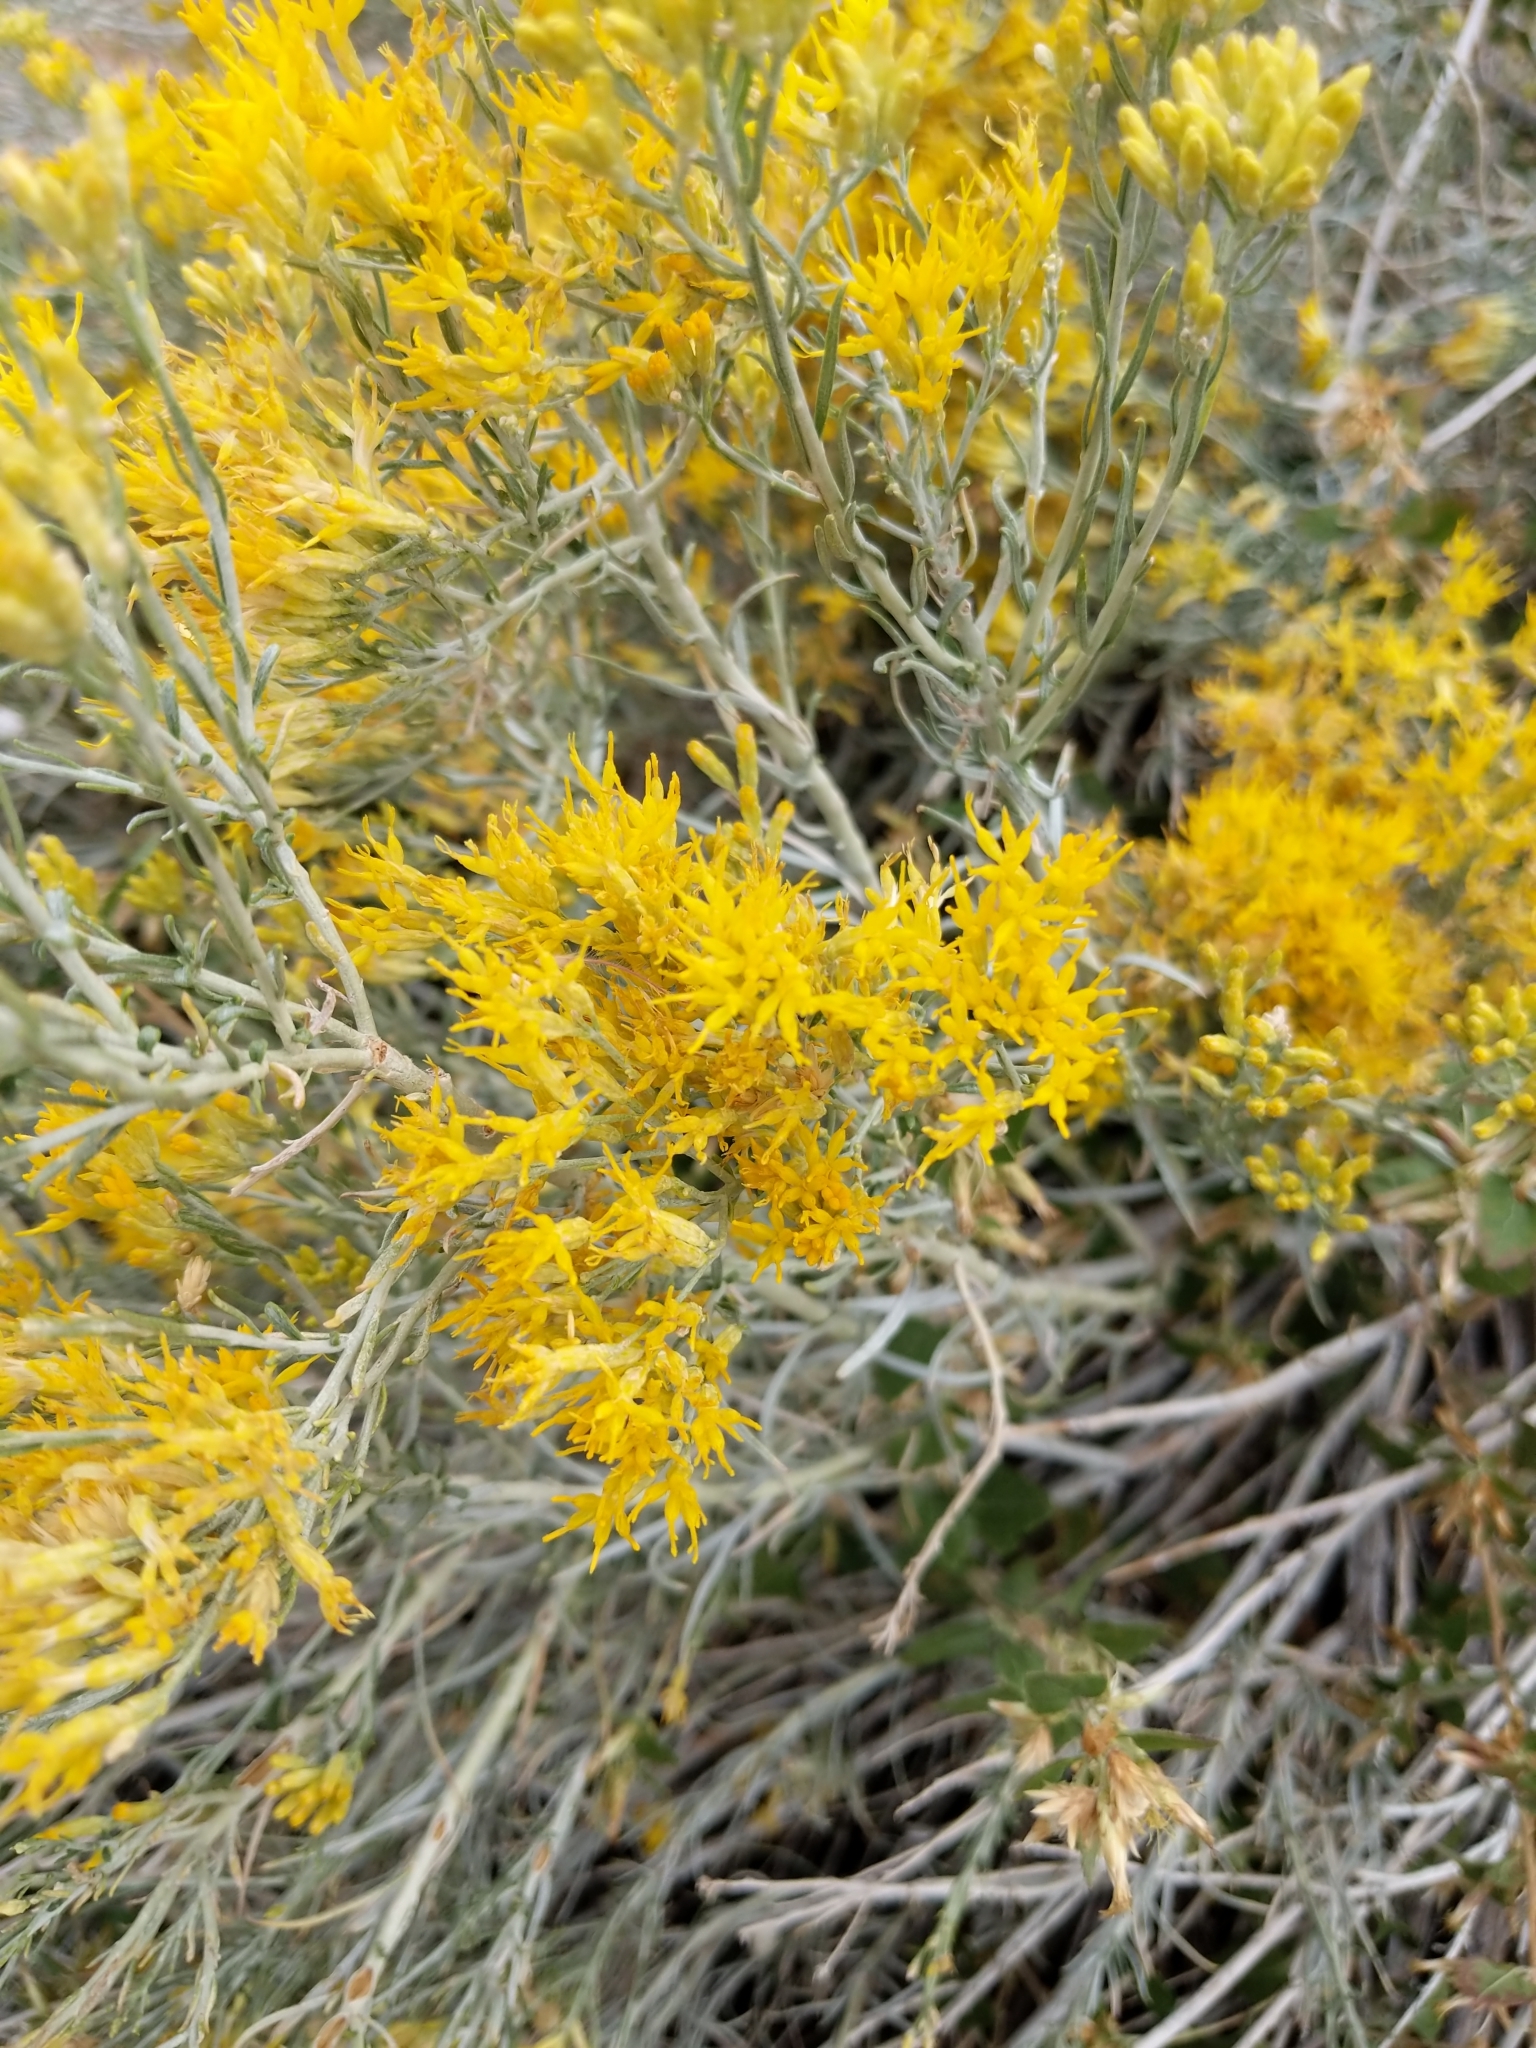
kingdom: Plantae
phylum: Tracheophyta
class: Magnoliopsida
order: Asterales
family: Asteraceae
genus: Ericameria
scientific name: Ericameria nauseosa
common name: Rubber rabbitbrush
